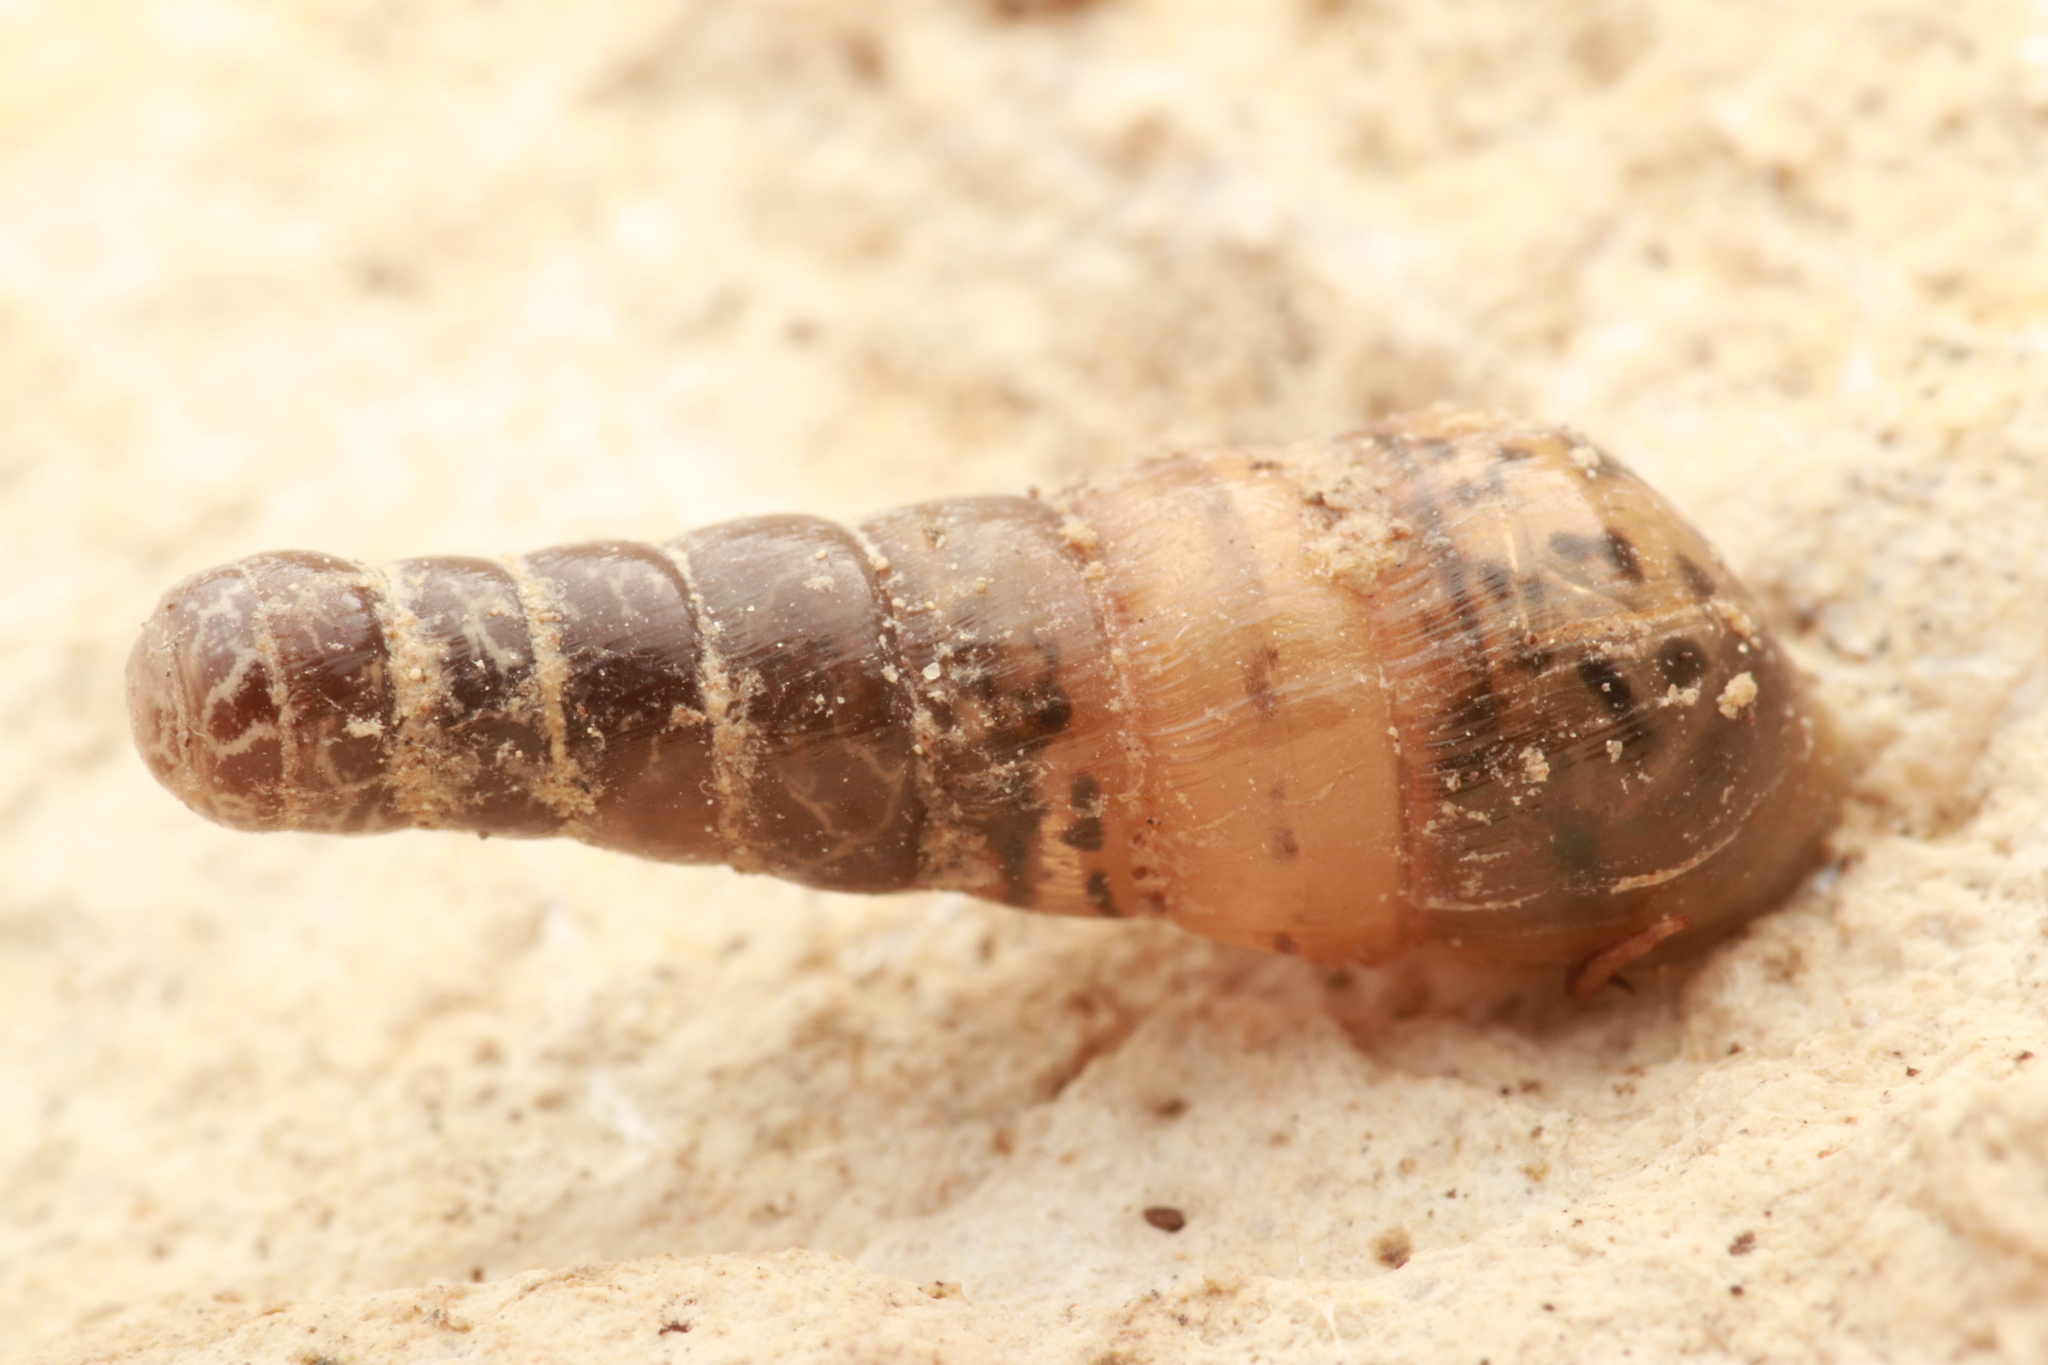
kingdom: Animalia
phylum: Mollusca
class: Gastropoda
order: Stylommatophora
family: Achatinidae
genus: Rumina
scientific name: Rumina decollata
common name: Decollate snail
